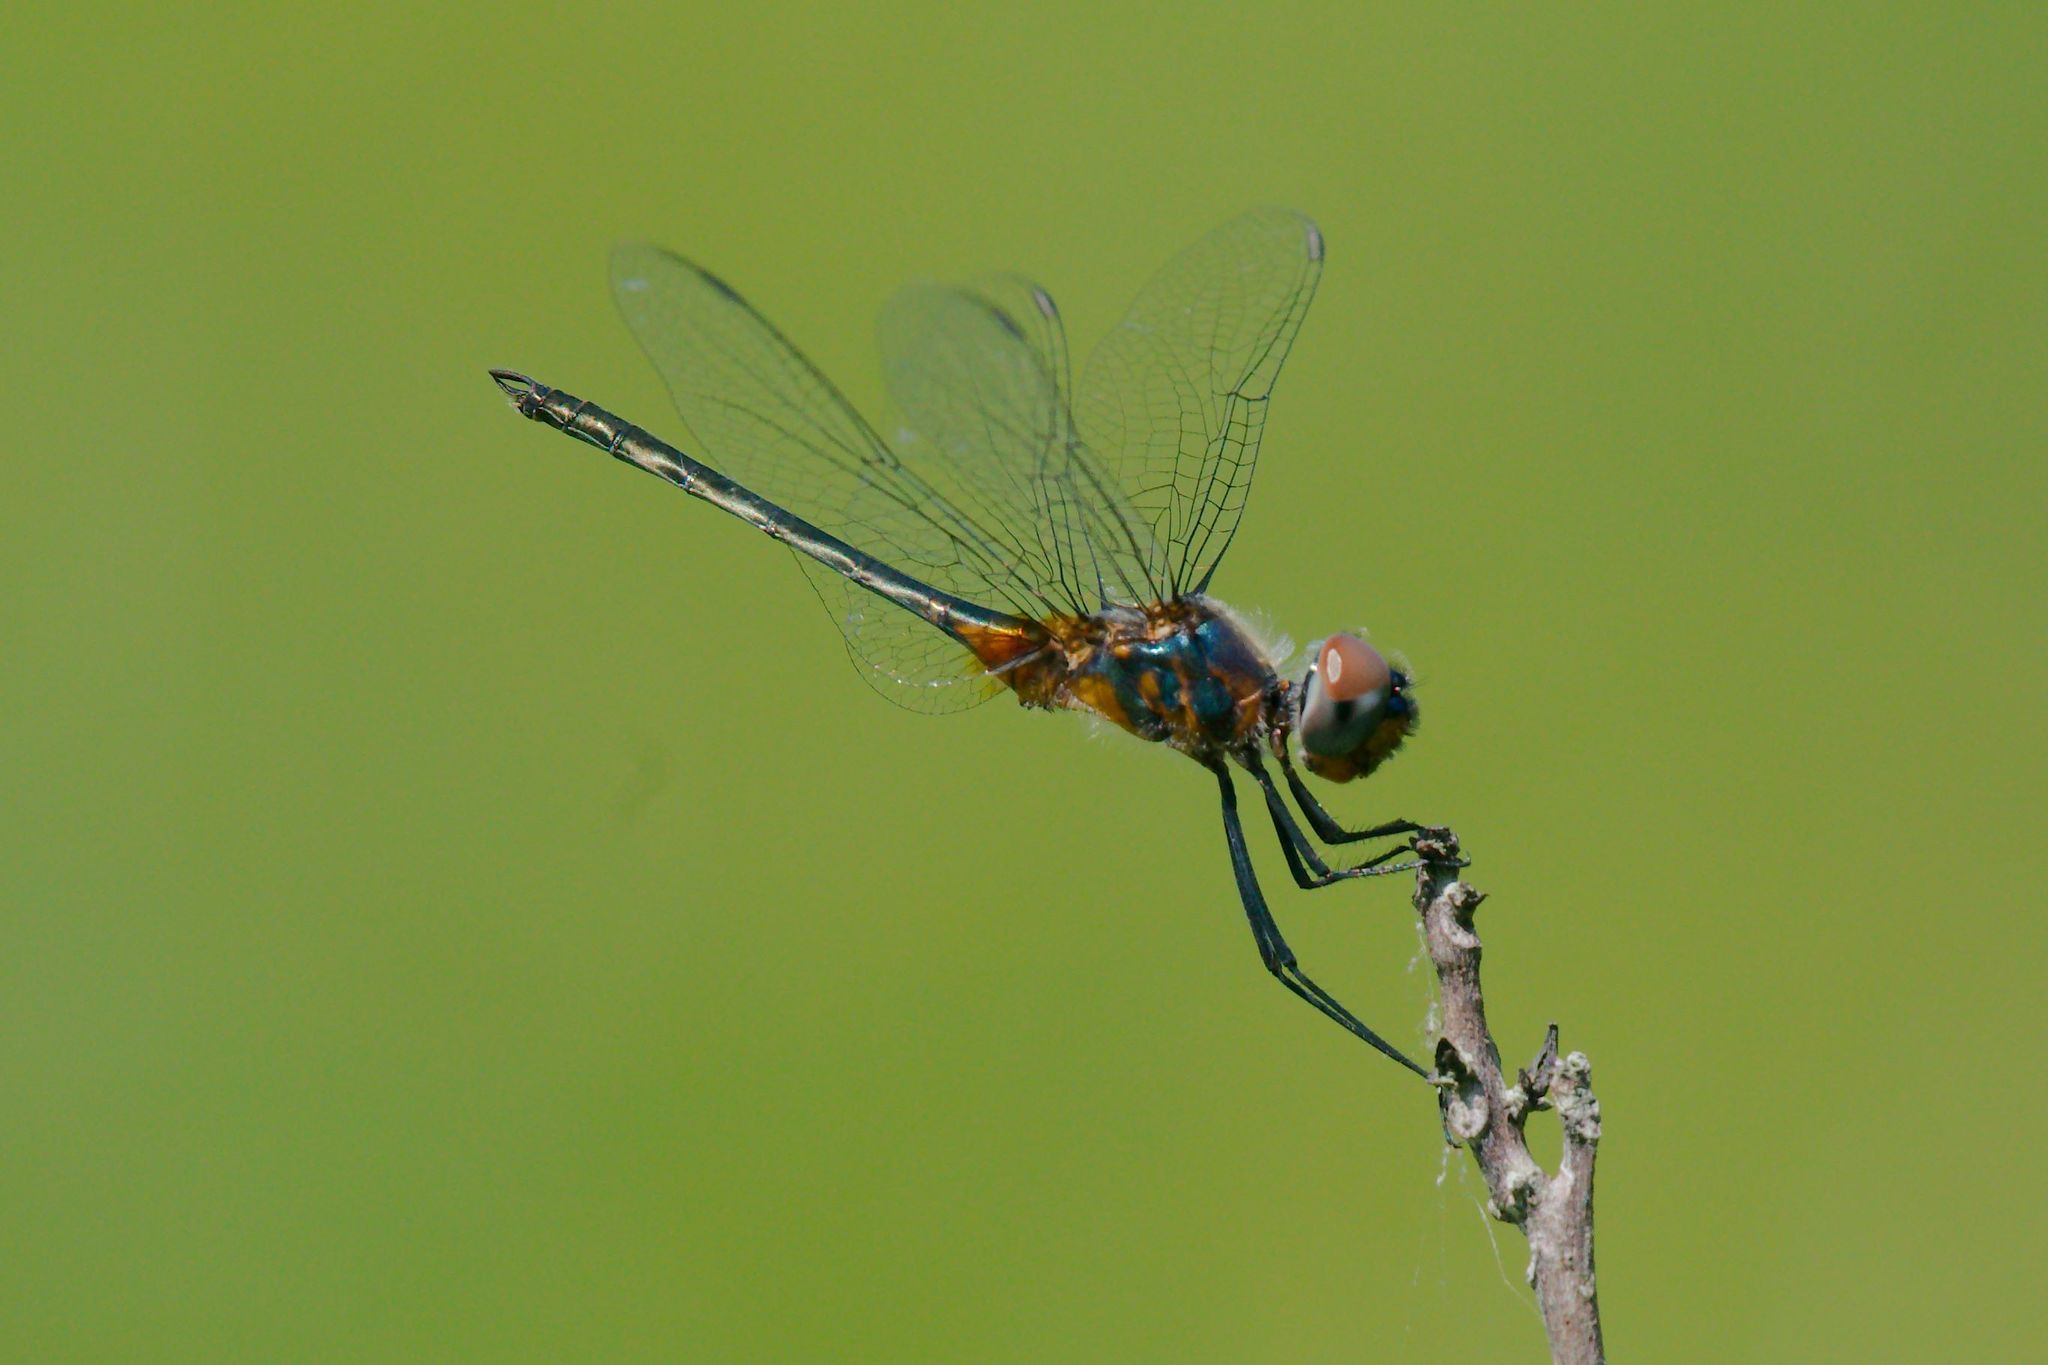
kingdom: Animalia
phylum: Arthropoda
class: Insecta
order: Odonata
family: Libellulidae
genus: Idiataphe
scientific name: Idiataphe cubensis
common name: Metallic pennant
